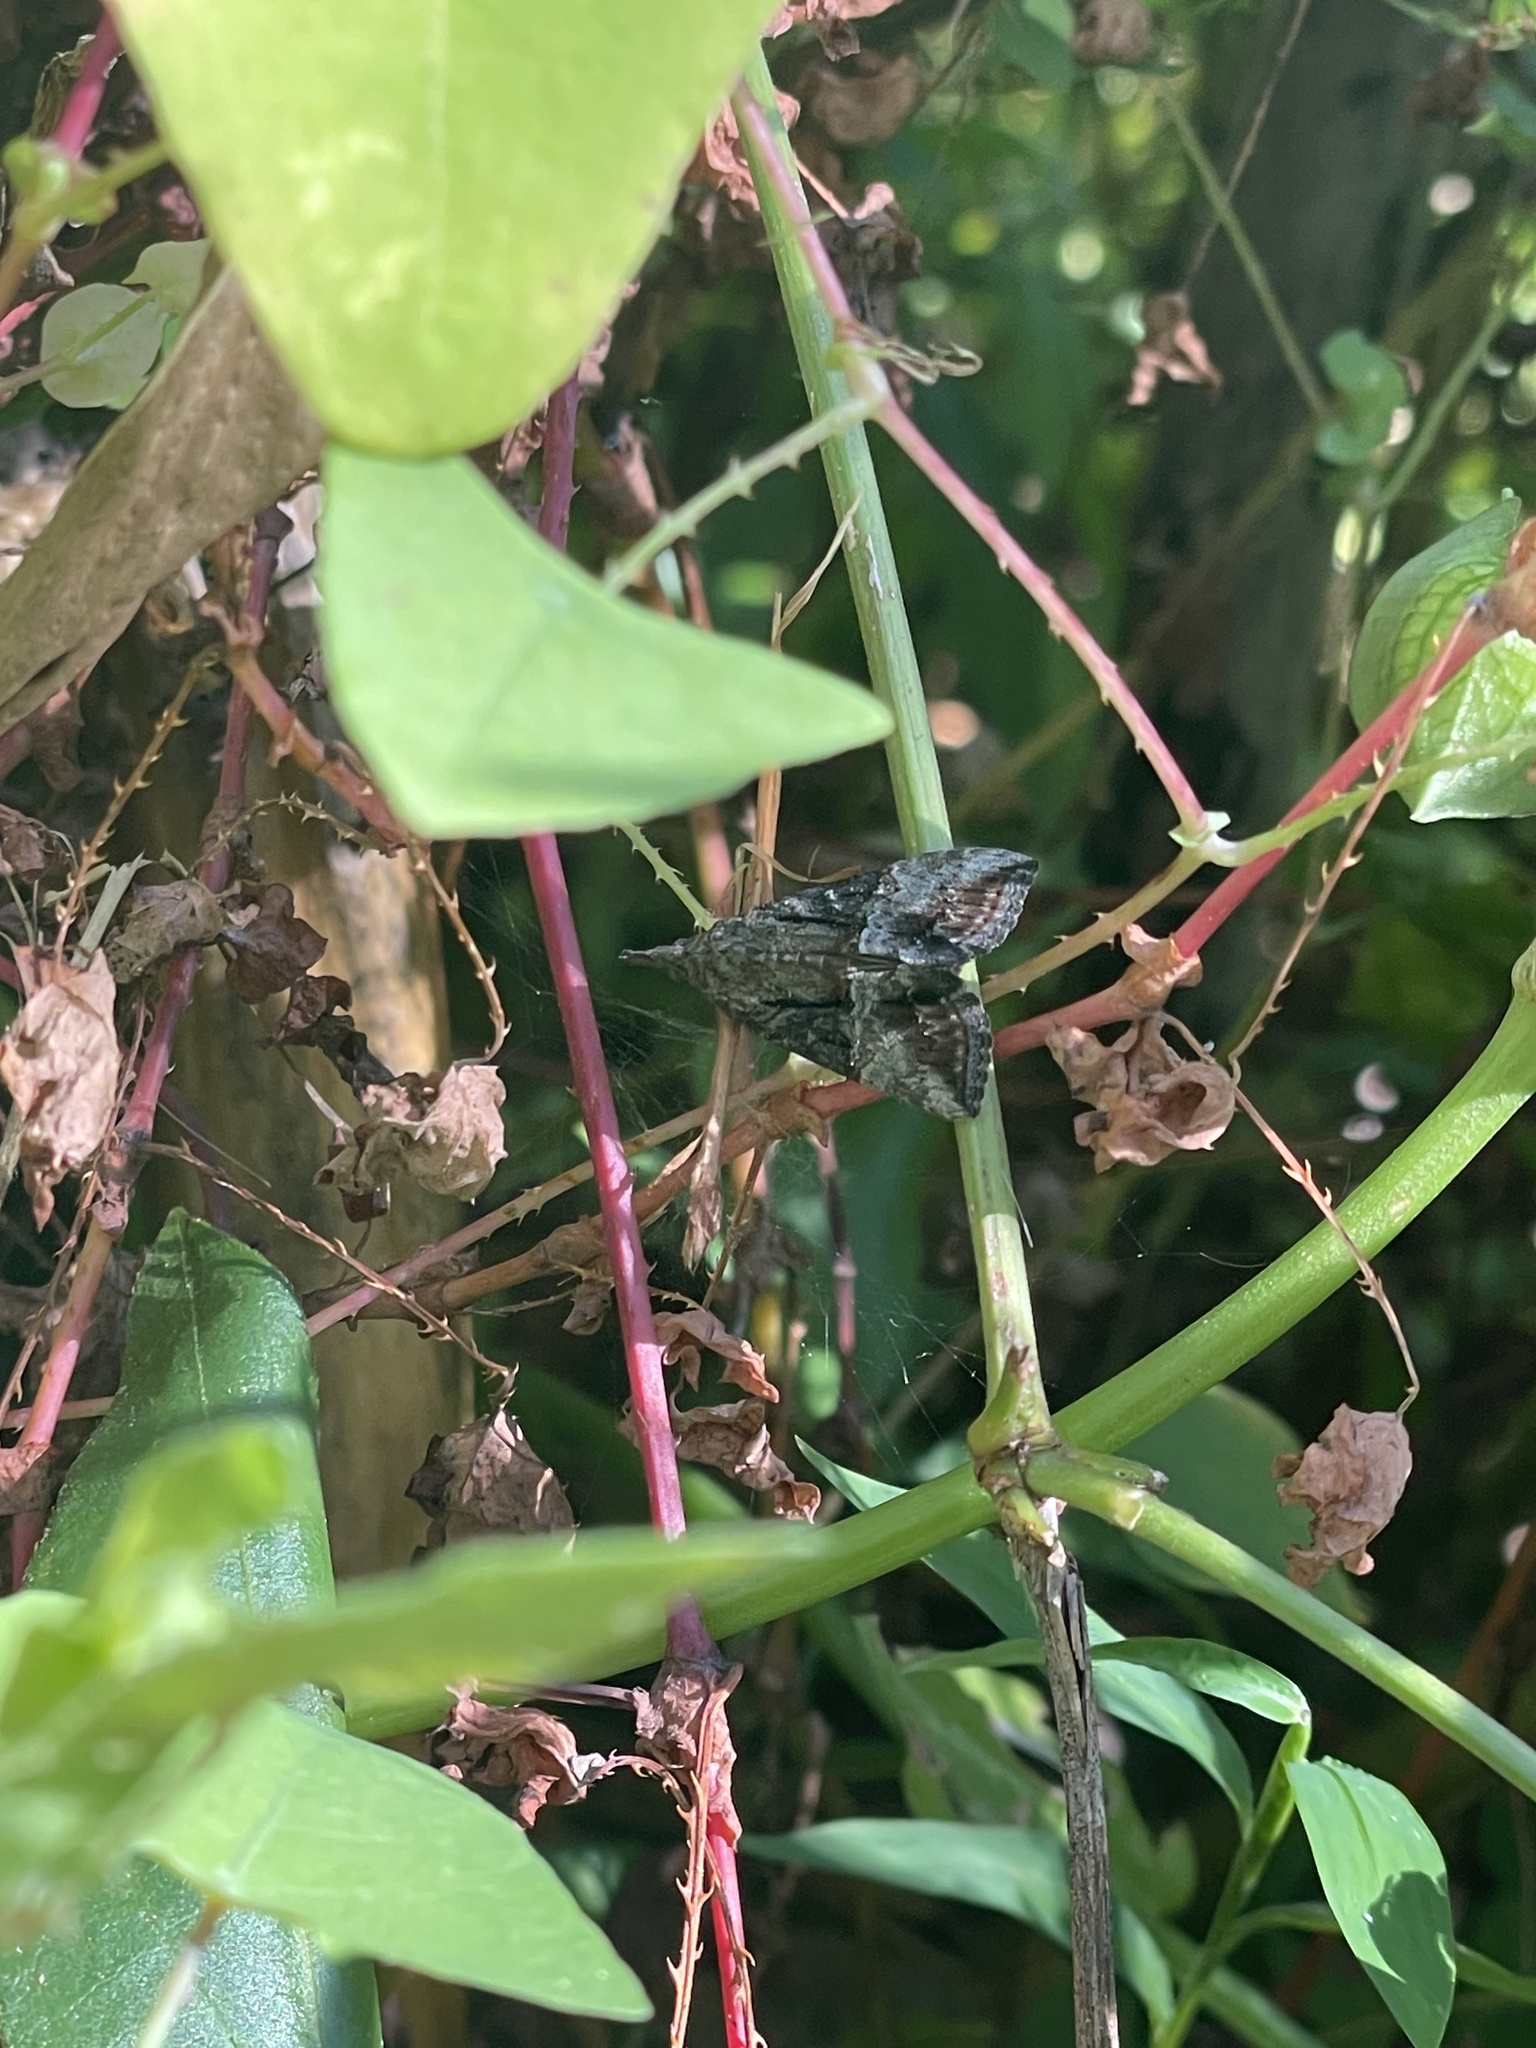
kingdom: Animalia
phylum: Arthropoda
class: Insecta
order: Lepidoptera
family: Erebidae
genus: Hypena
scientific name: Hypena scabra
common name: Green cloverworm
